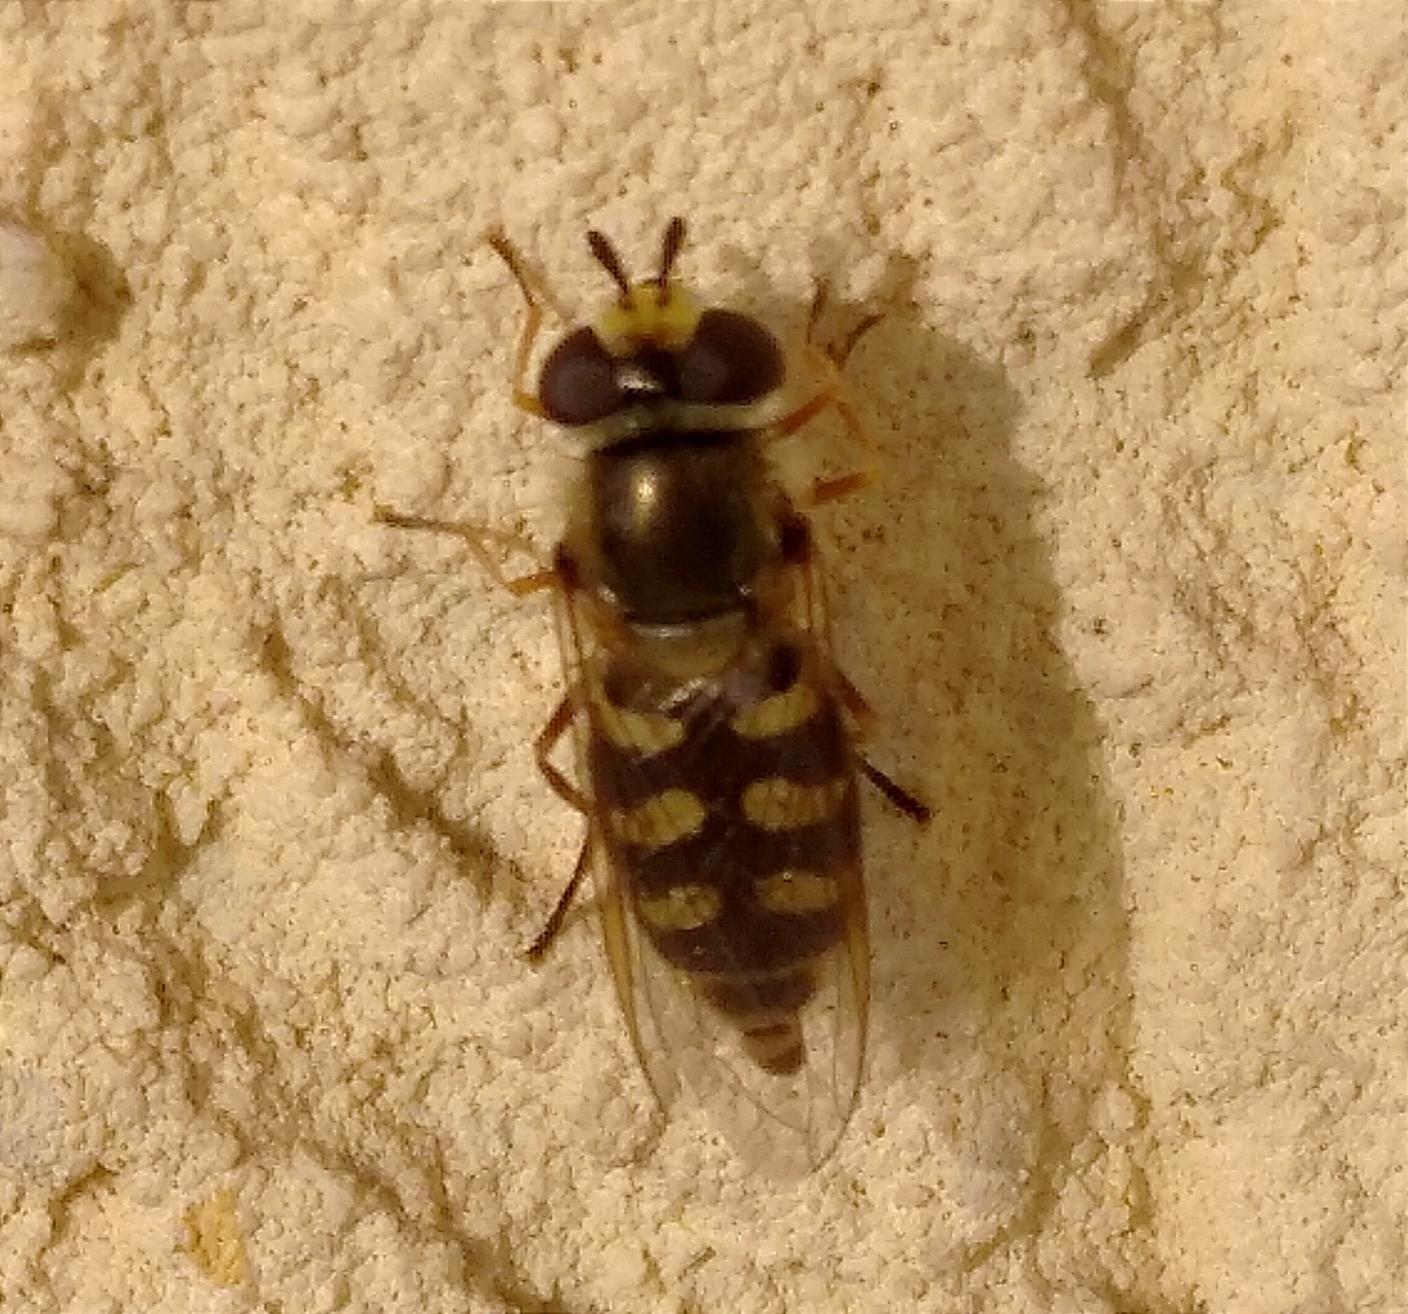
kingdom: Animalia
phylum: Arthropoda
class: Insecta
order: Diptera
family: Syrphidae
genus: Eupeodes
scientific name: Eupeodes luniger
